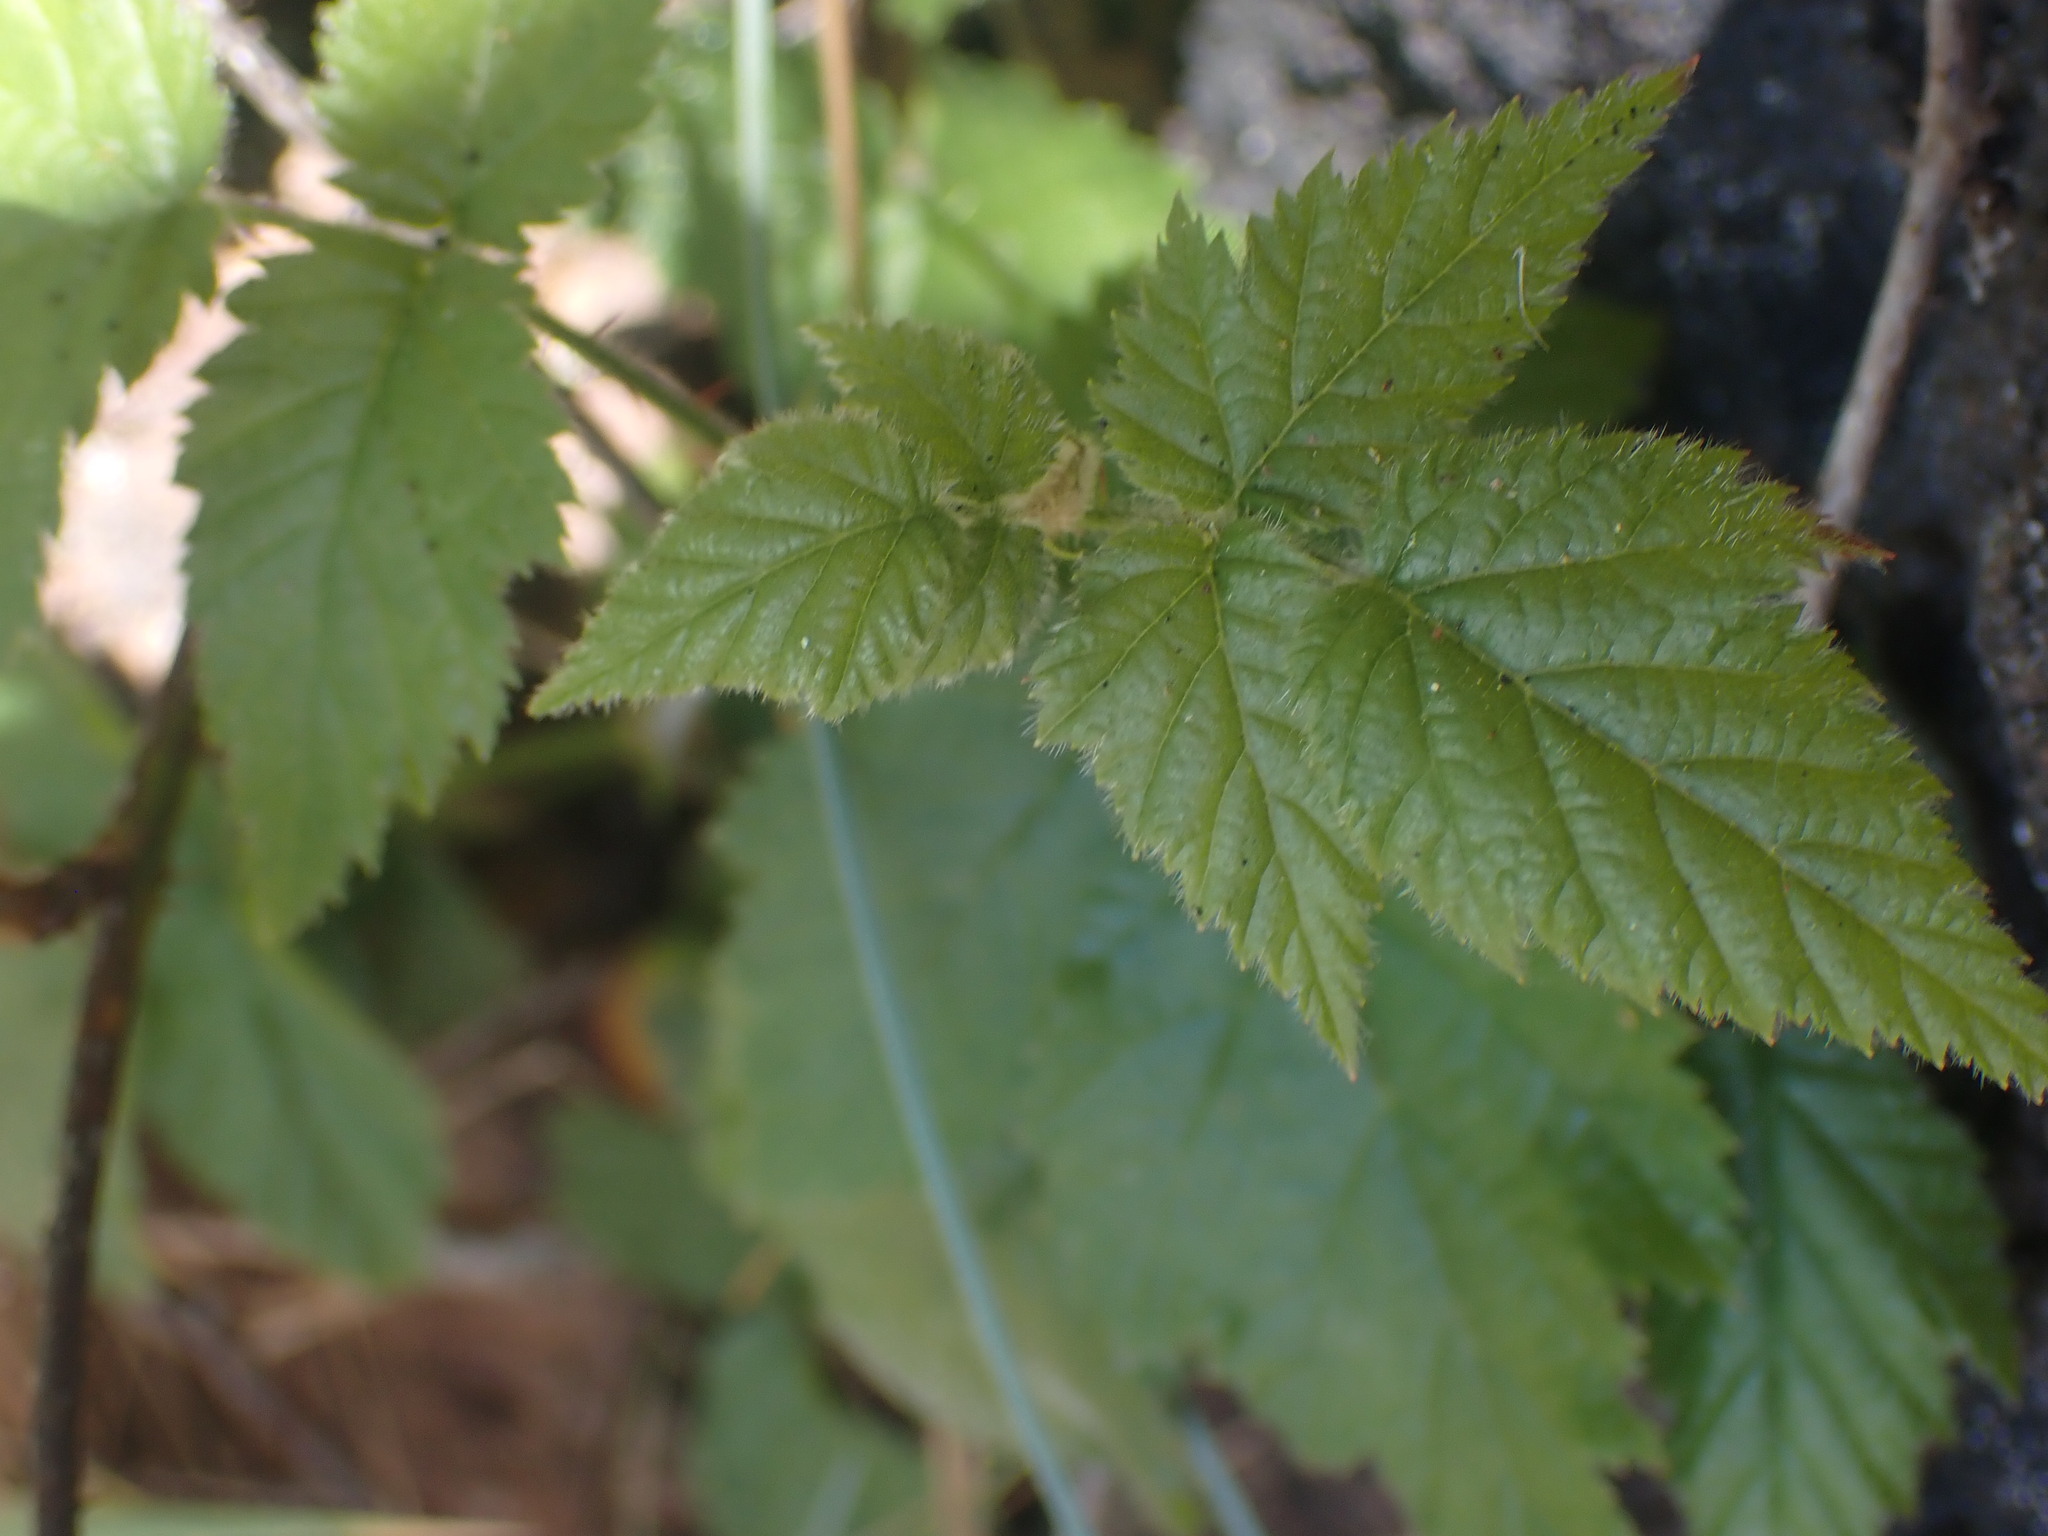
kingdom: Plantae
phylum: Tracheophyta
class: Magnoliopsida
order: Rosales
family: Rosaceae
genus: Rubus
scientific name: Rubus ursinus
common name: Pacific blackberry
